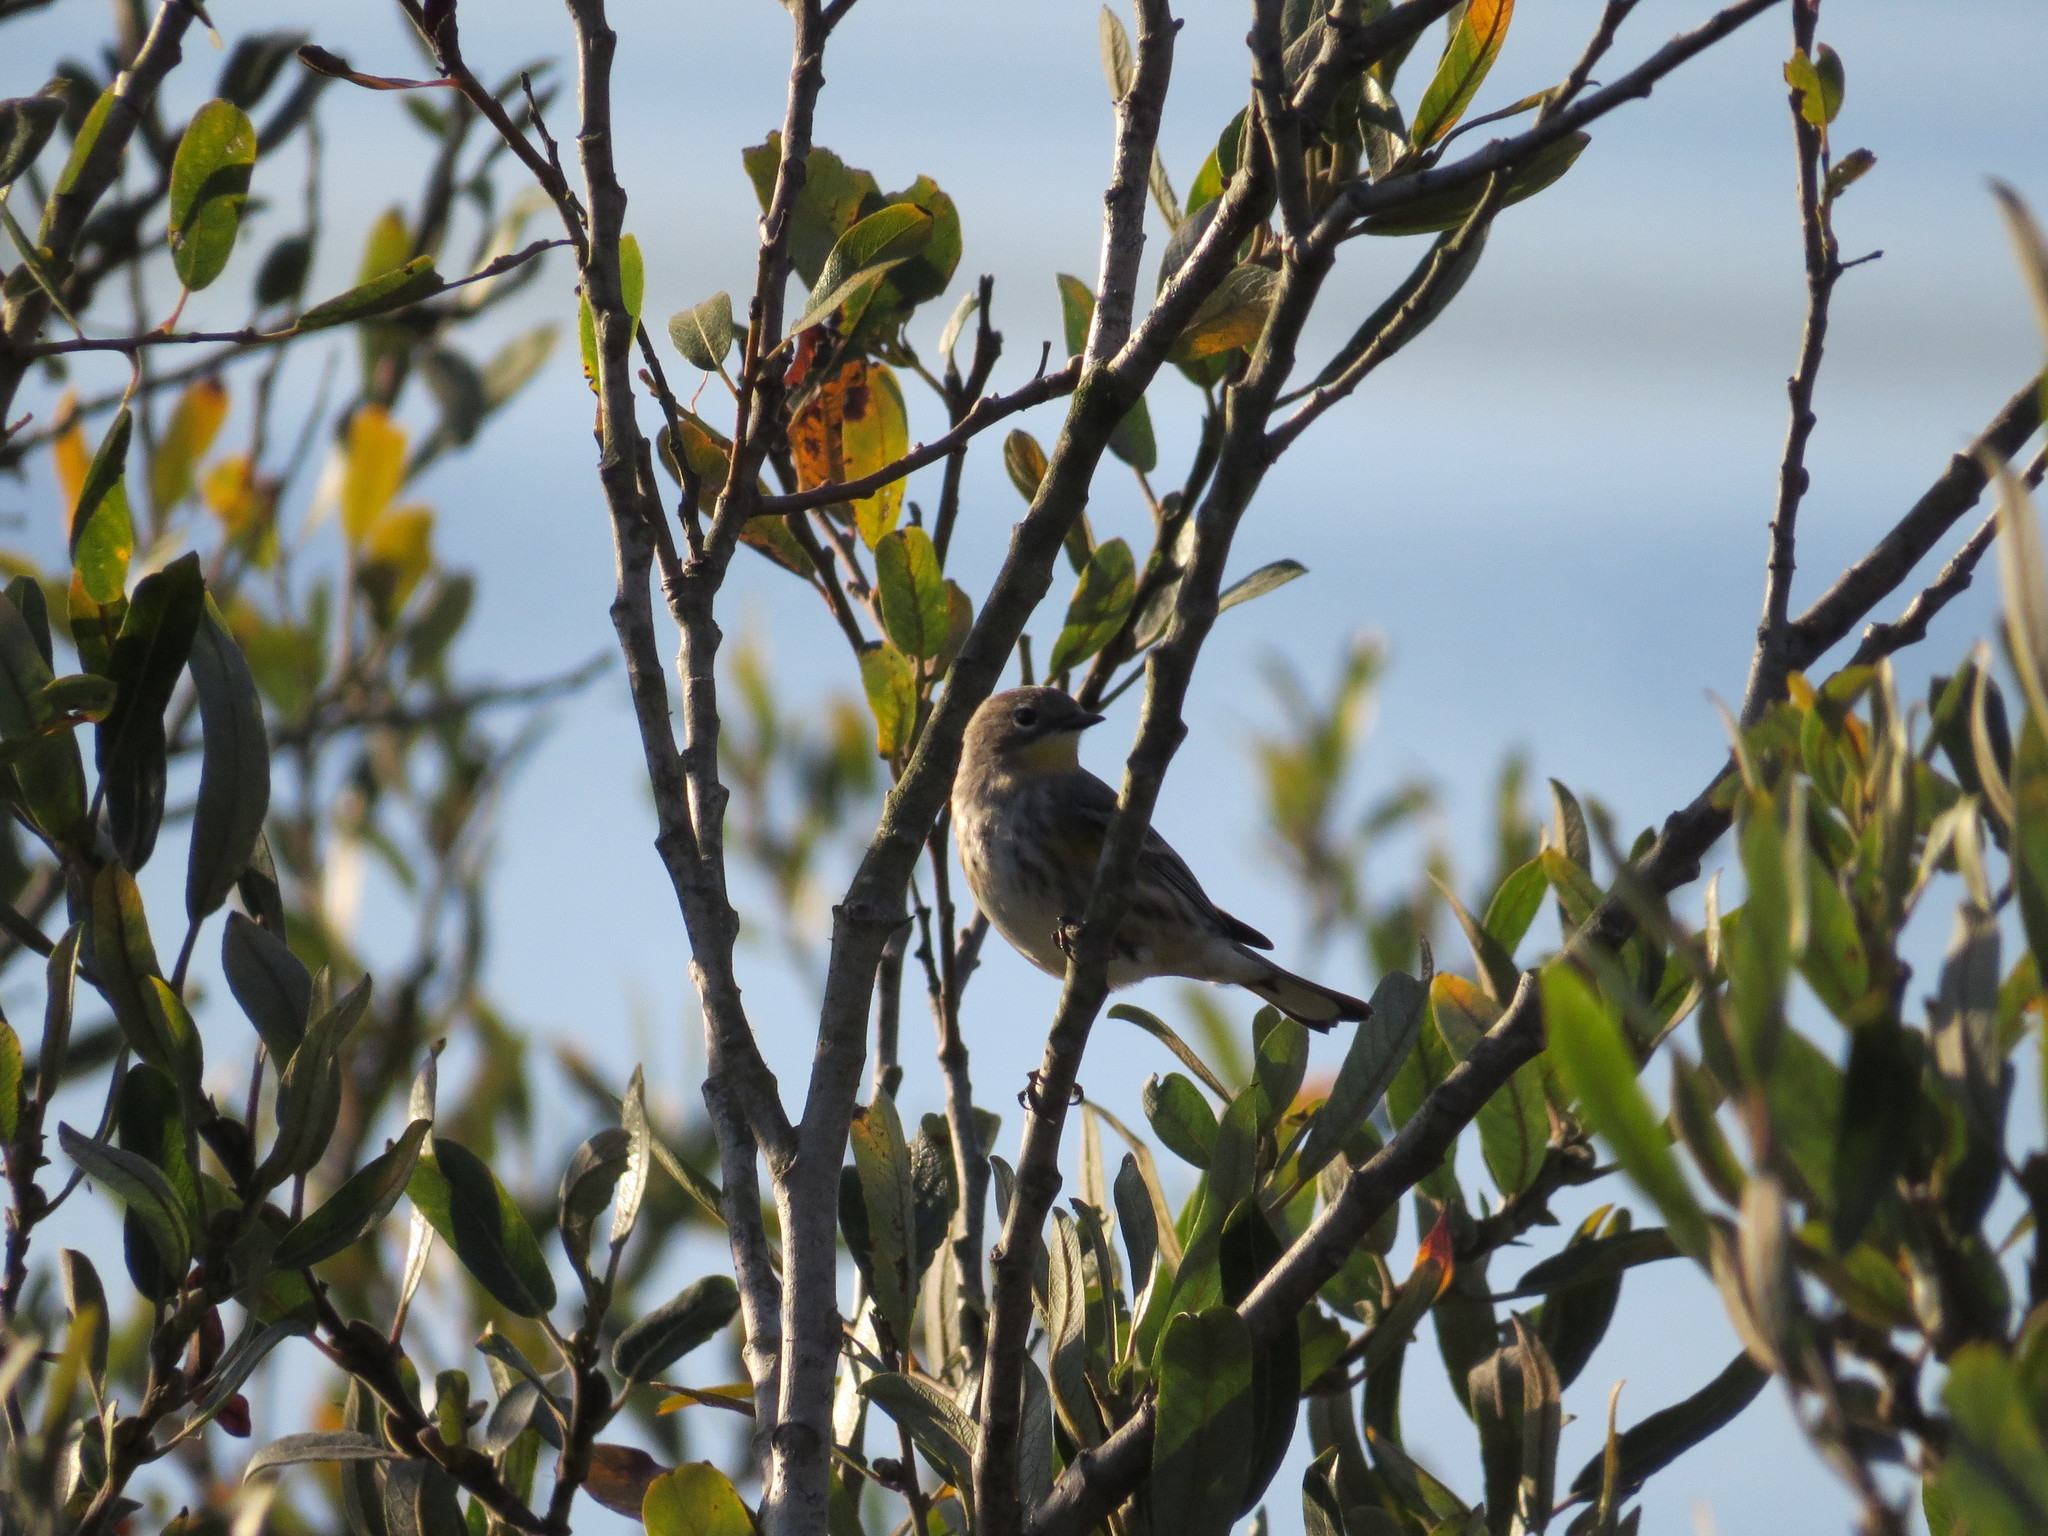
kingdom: Animalia
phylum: Chordata
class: Aves
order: Passeriformes
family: Parulidae
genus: Setophaga
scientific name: Setophaga coronata
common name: Myrtle warbler
